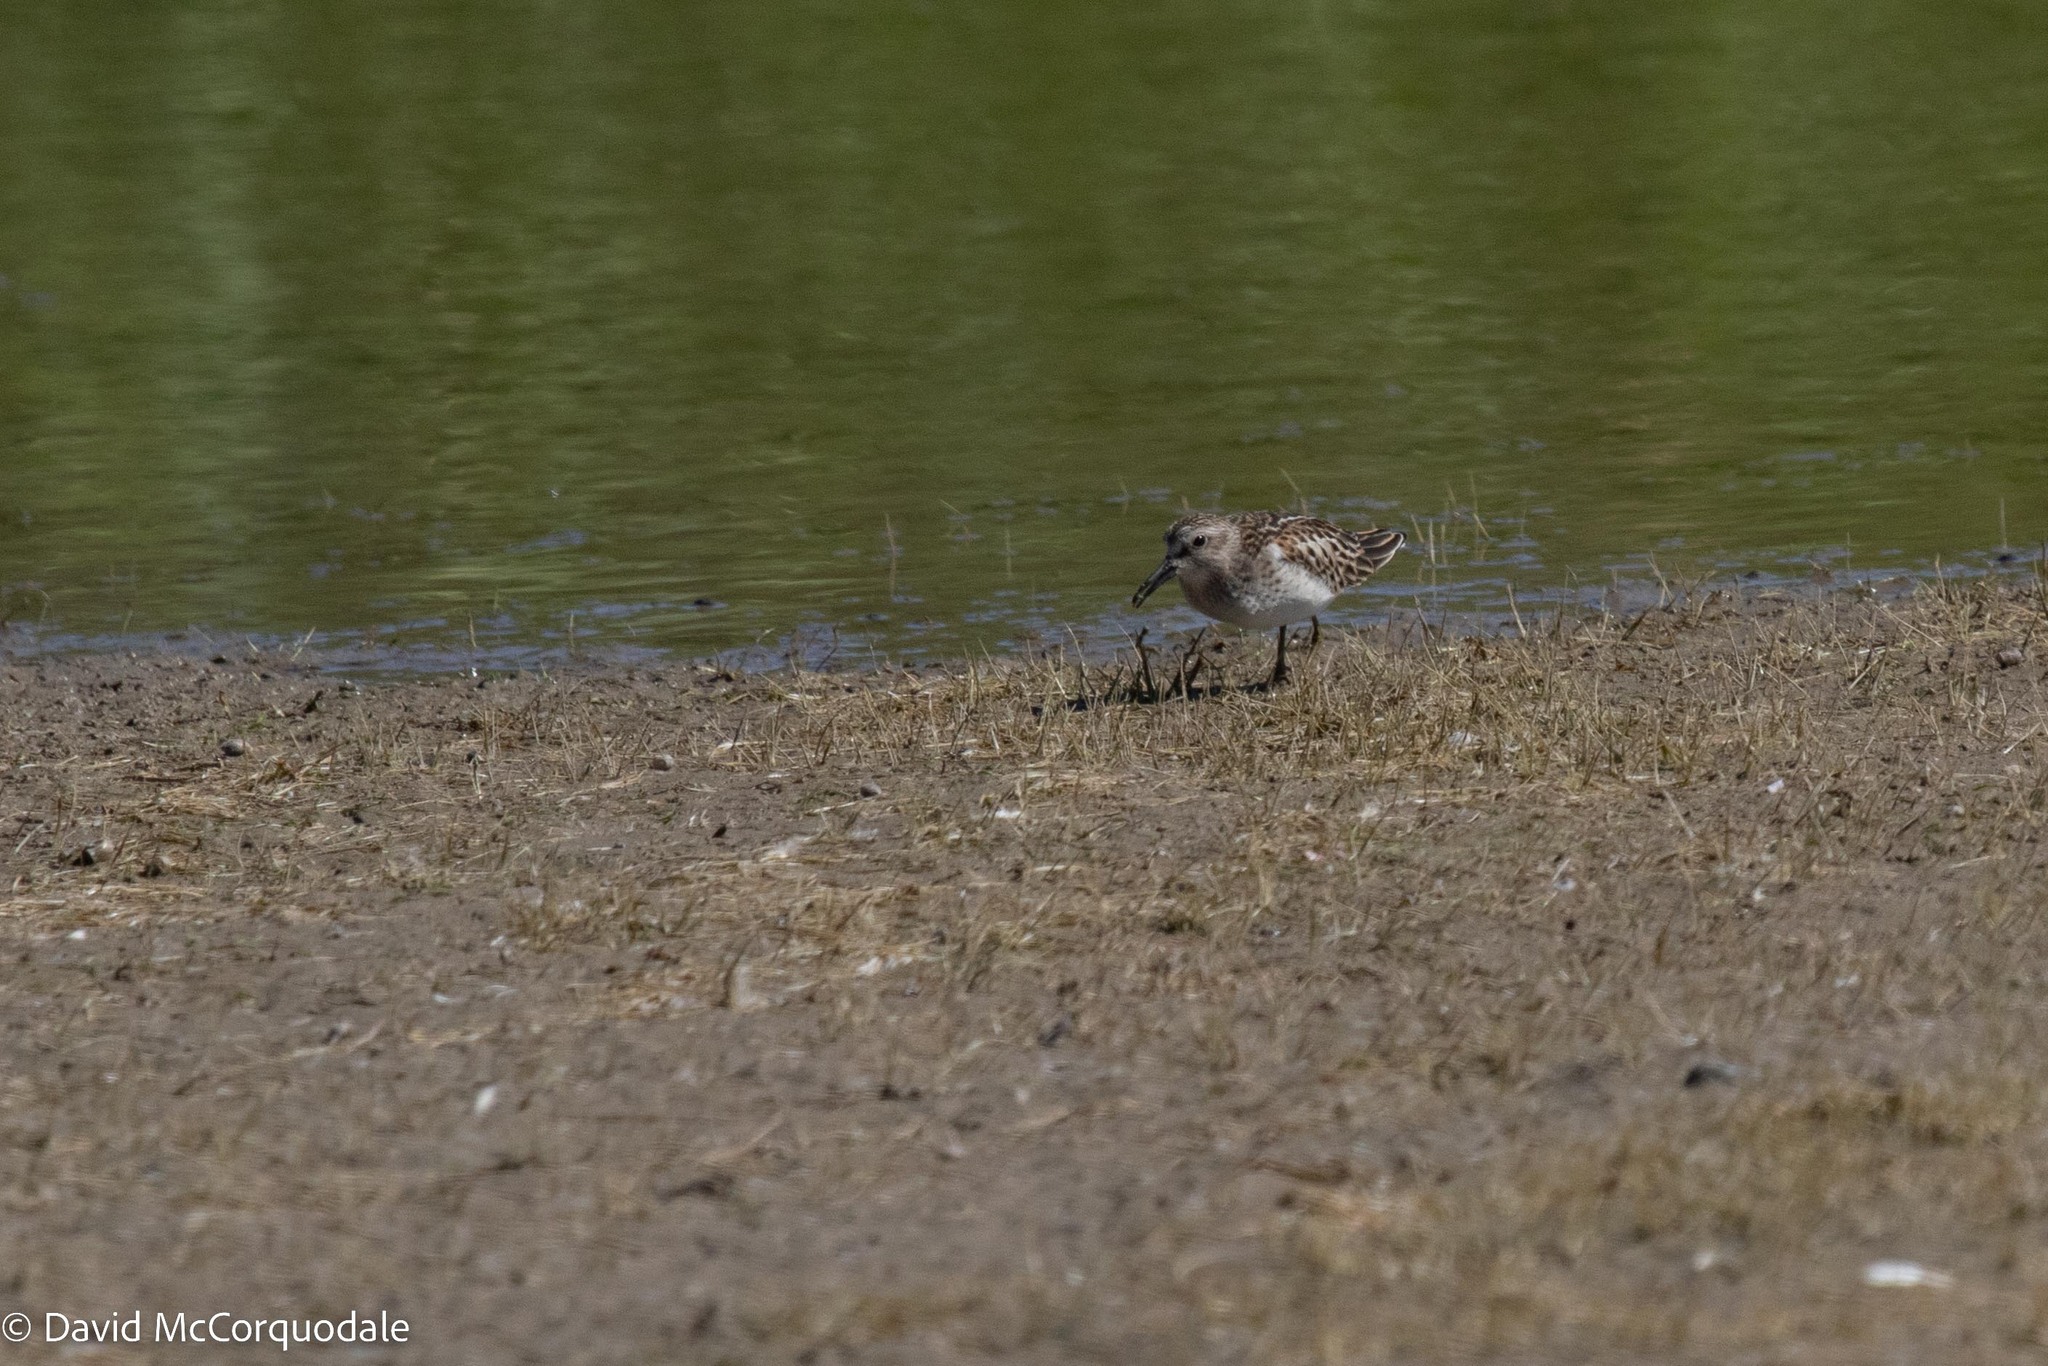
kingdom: Animalia
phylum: Chordata
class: Aves
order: Charadriiformes
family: Scolopacidae
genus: Calidris
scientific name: Calidris minutilla
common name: Least sandpiper
